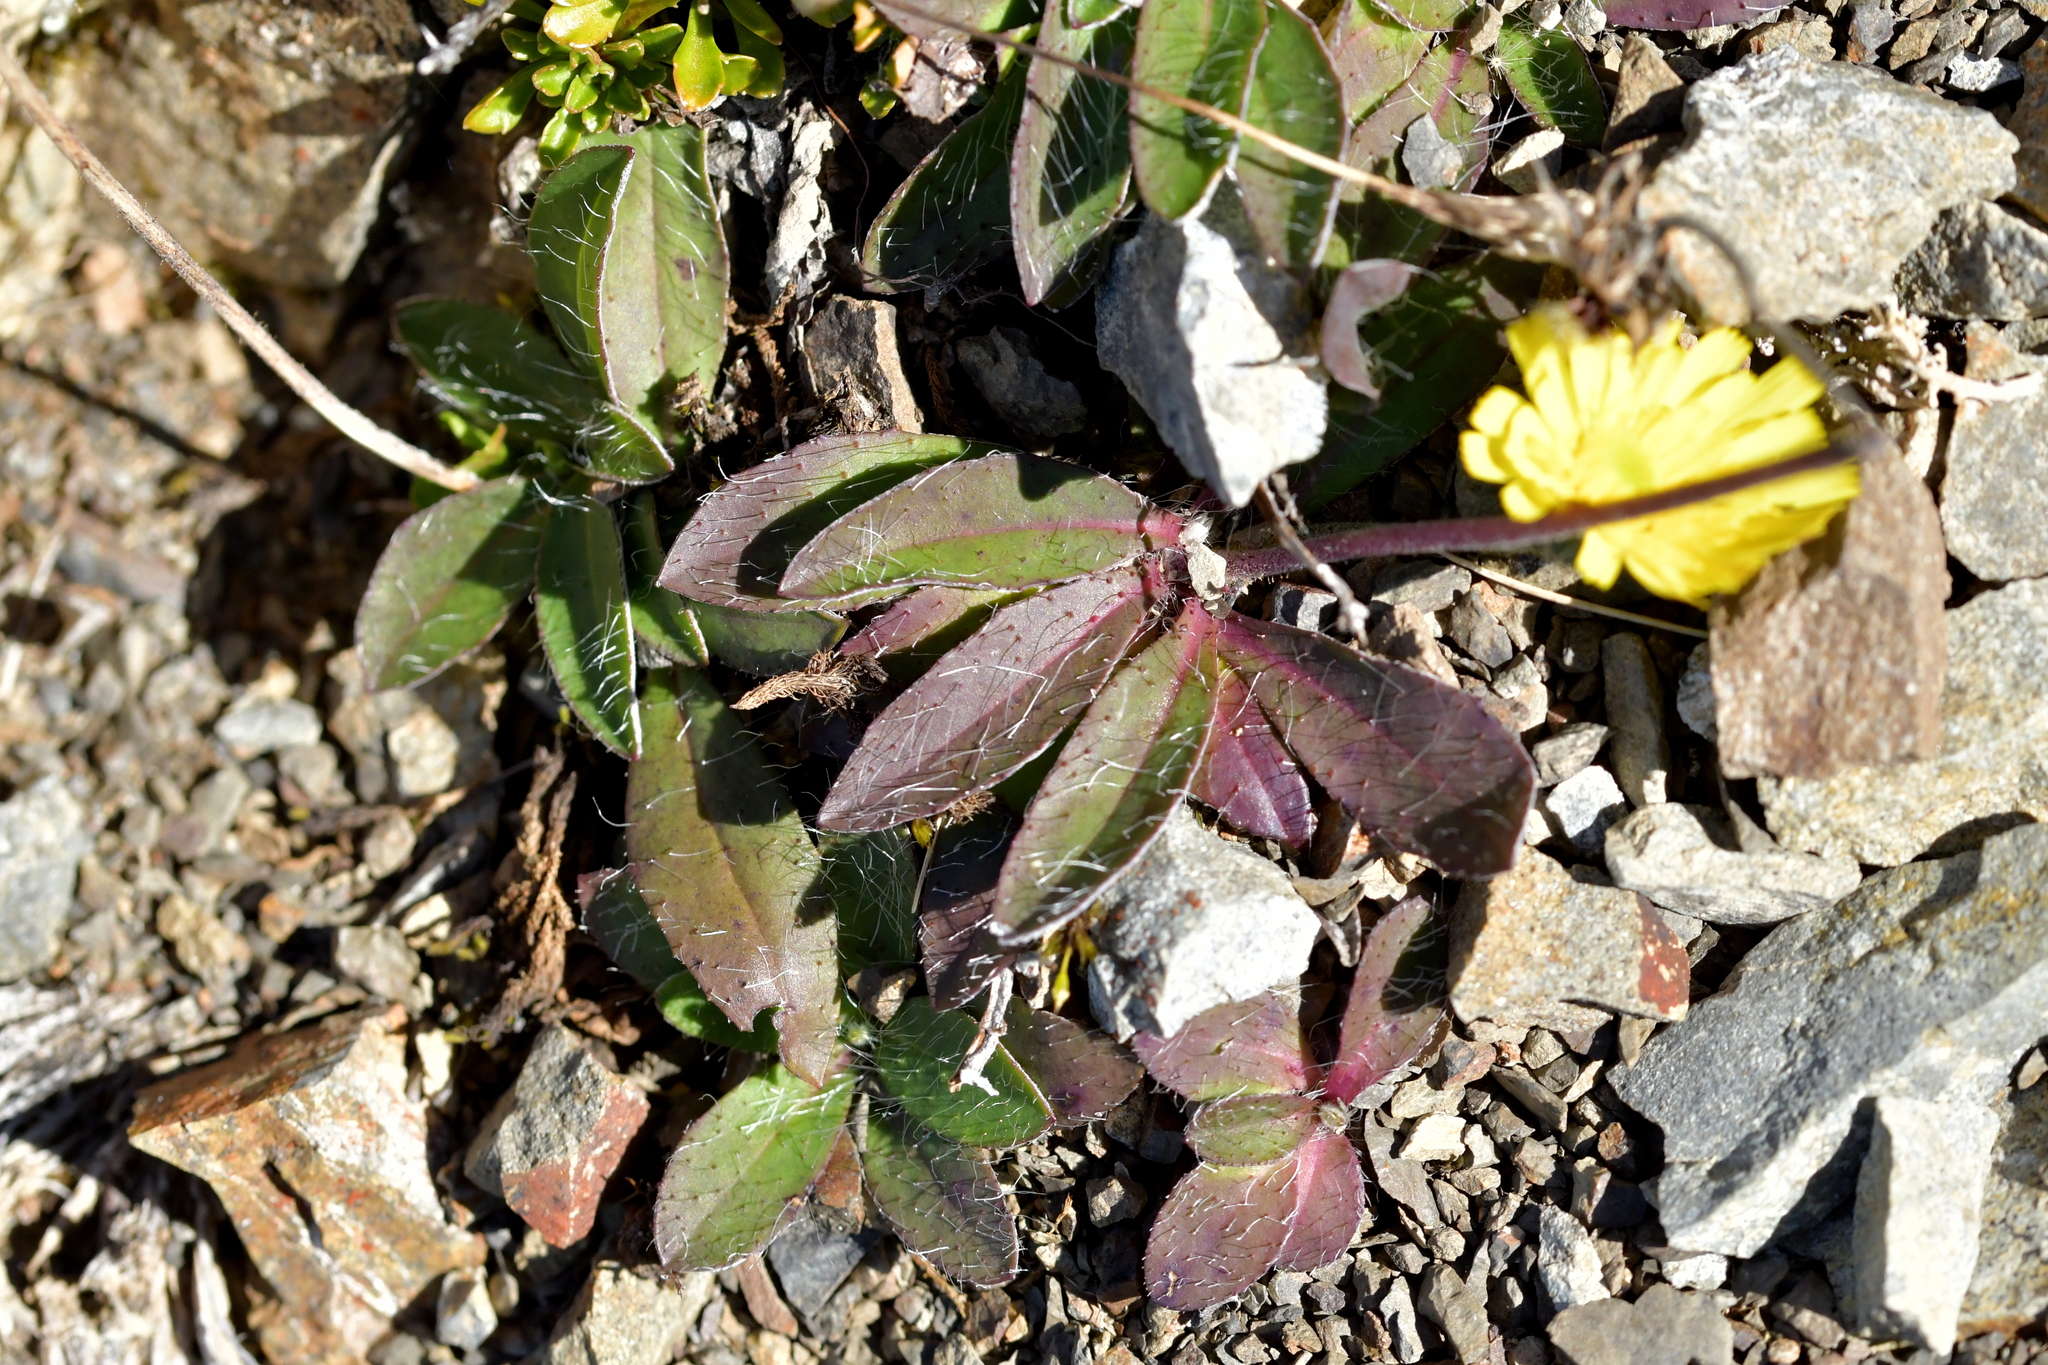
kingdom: Plantae
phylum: Tracheophyta
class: Magnoliopsida
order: Asterales
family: Asteraceae
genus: Pilosella
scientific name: Pilosella officinarum
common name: Mouse-ear hawkweed
